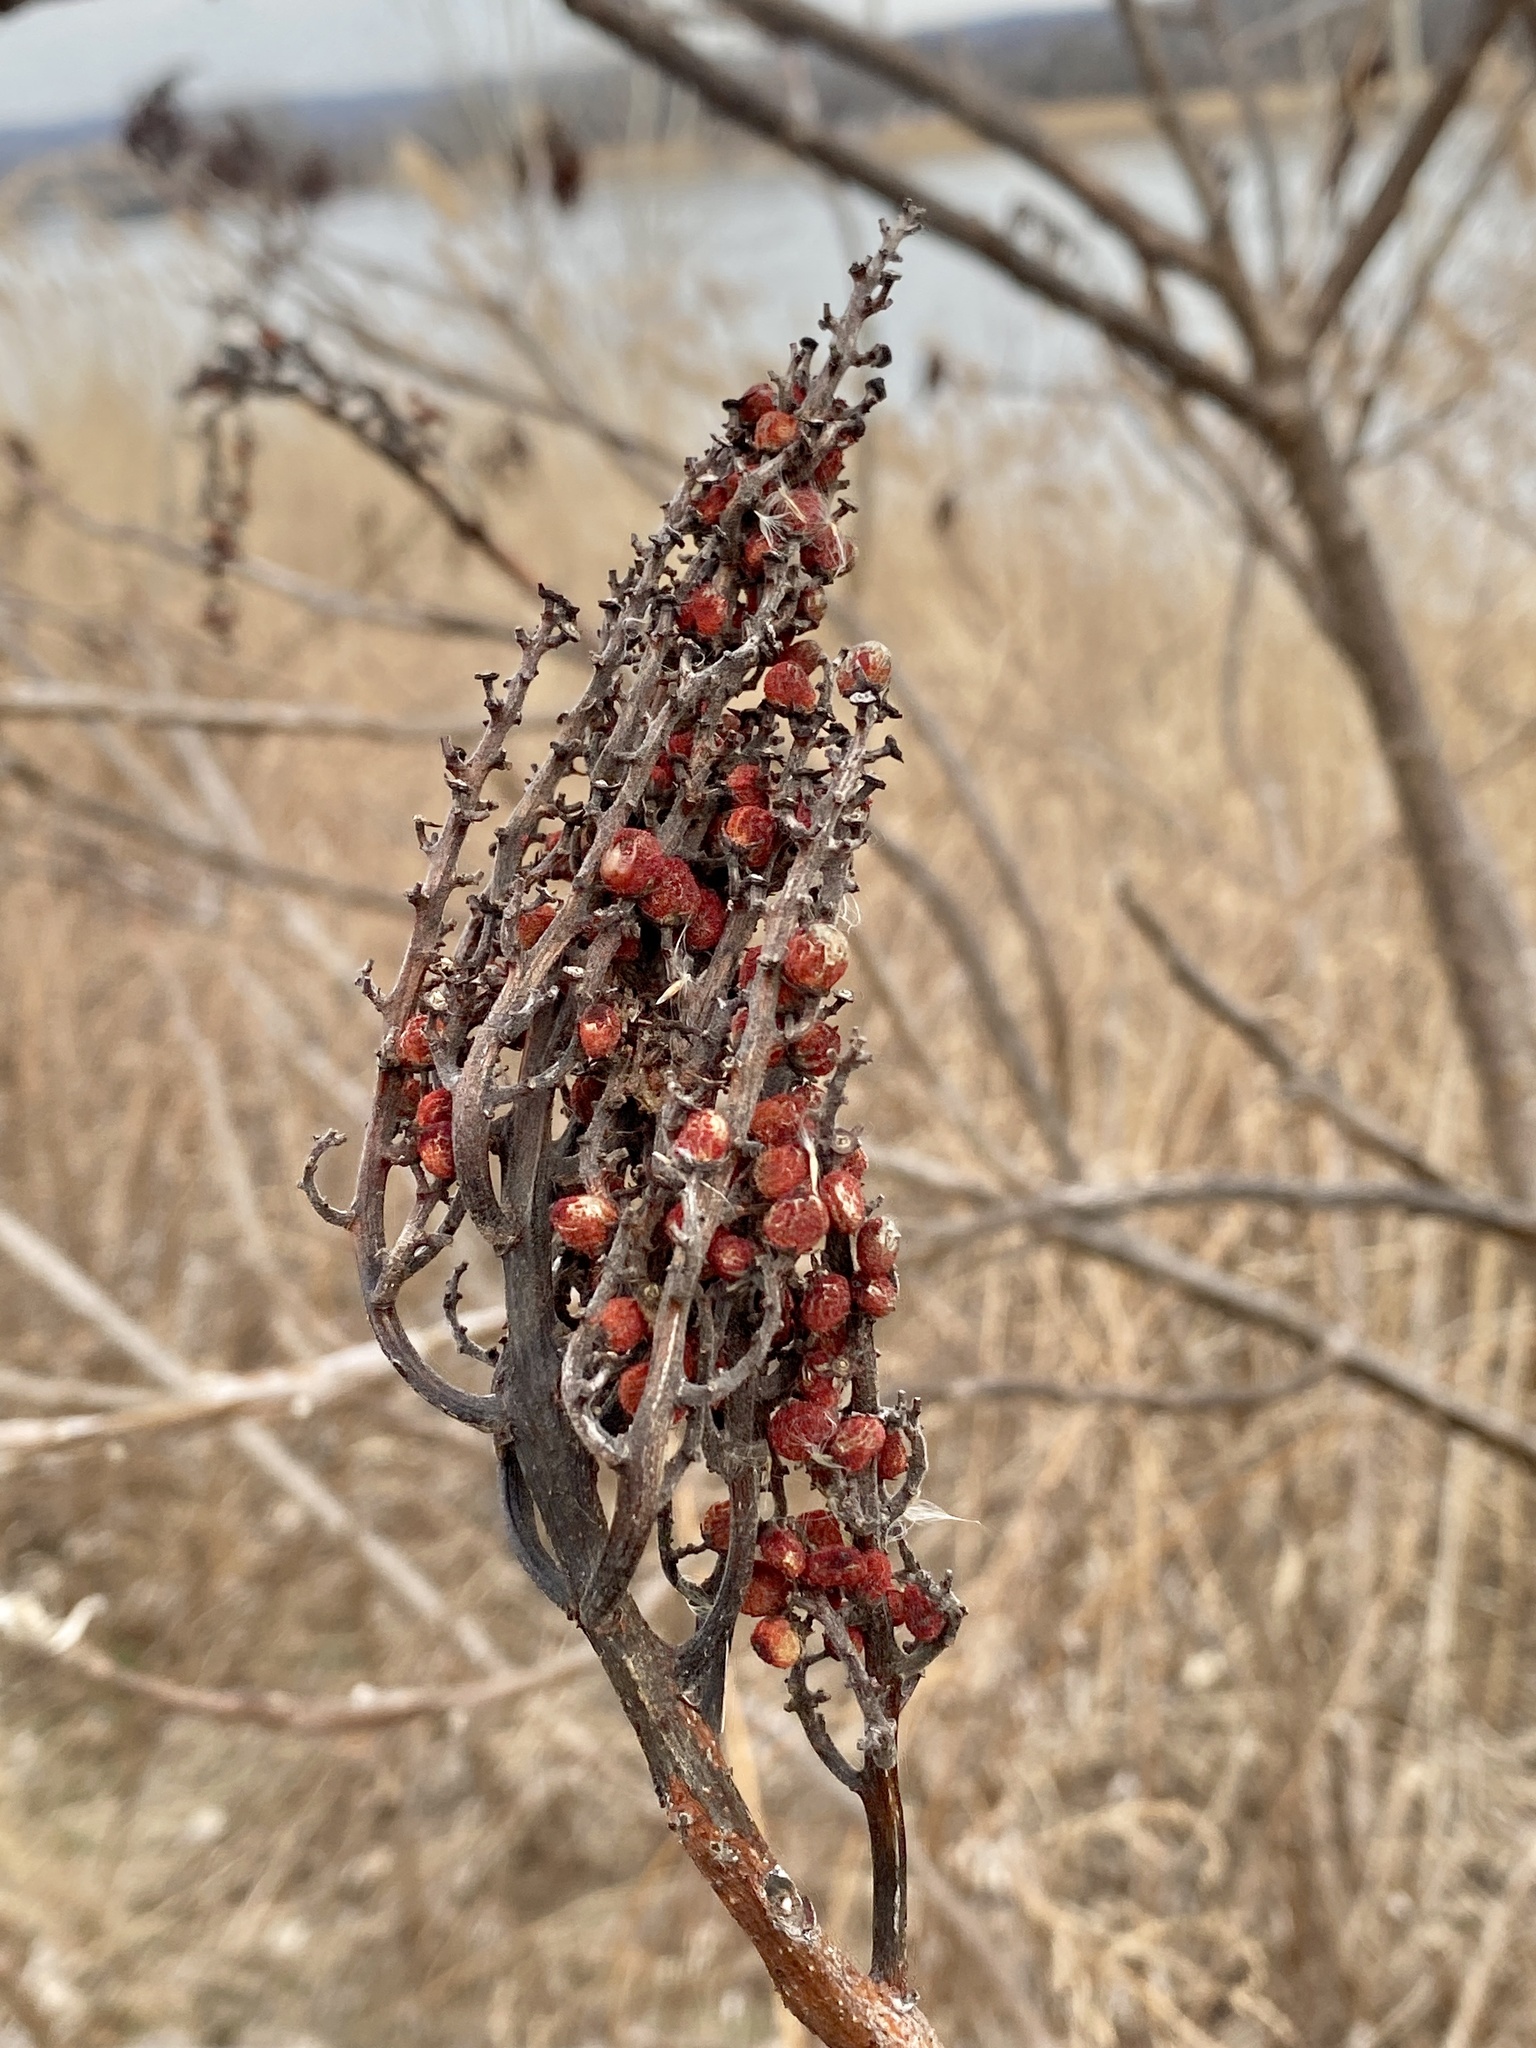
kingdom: Plantae
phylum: Tracheophyta
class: Magnoliopsida
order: Sapindales
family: Anacardiaceae
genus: Rhus
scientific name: Rhus glabra
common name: Scarlet sumac
